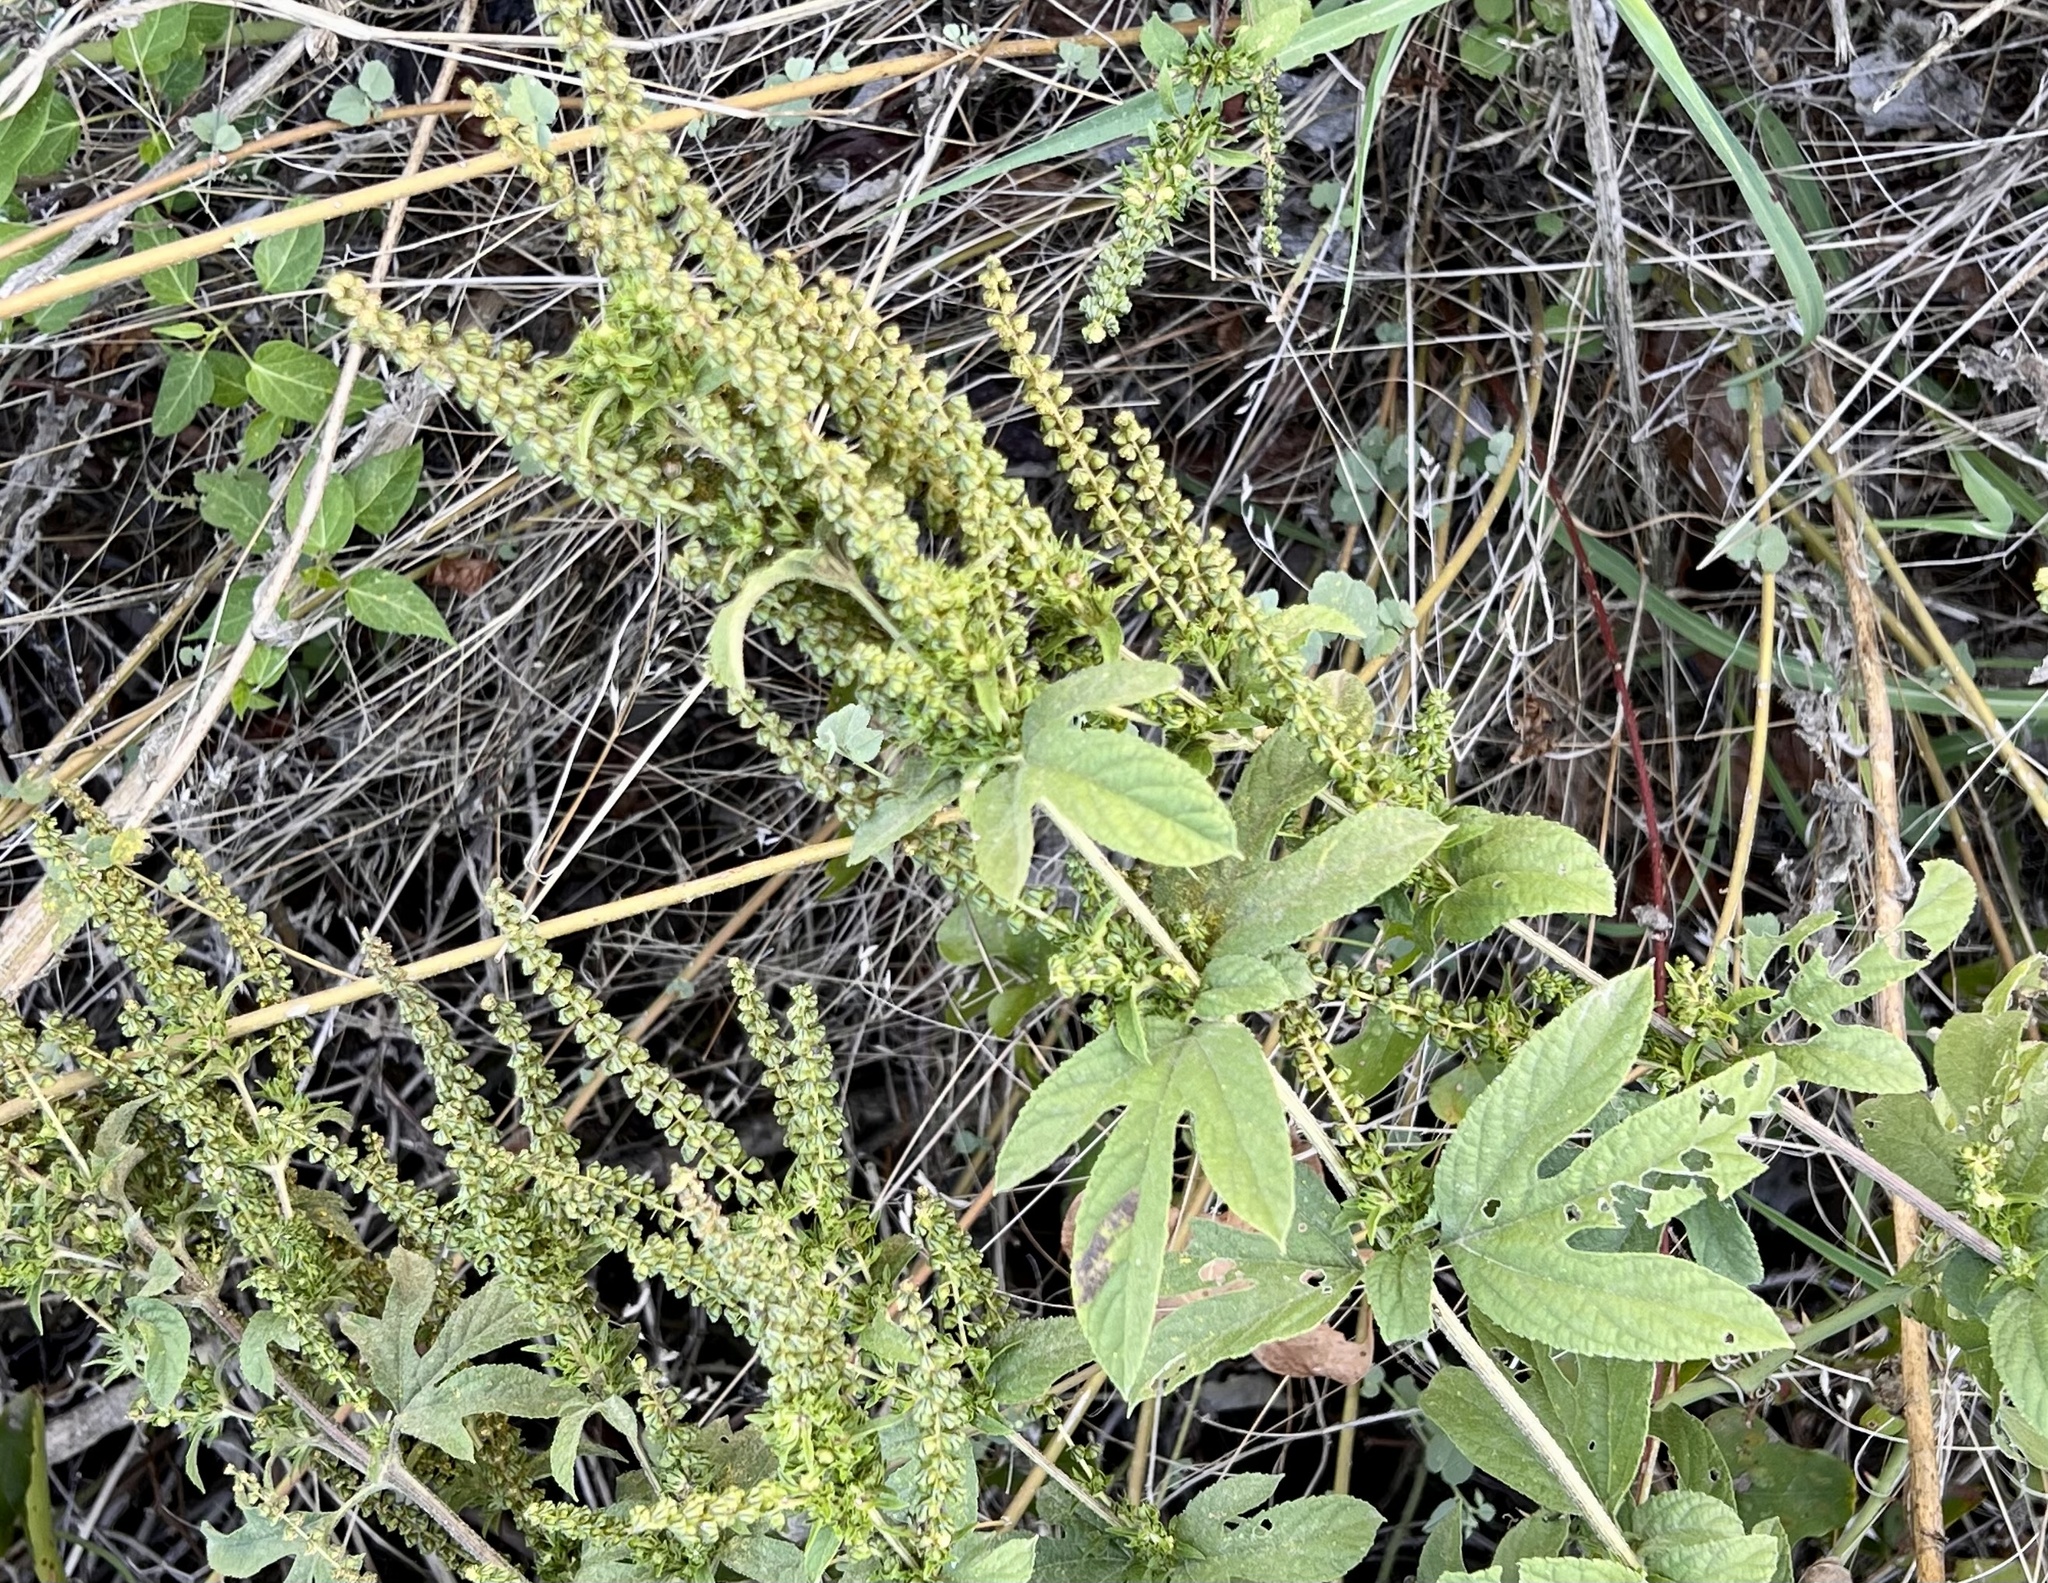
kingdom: Plantae
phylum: Tracheophyta
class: Magnoliopsida
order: Asterales
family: Asteraceae
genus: Ambrosia
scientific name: Ambrosia trifida
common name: Giant ragweed
